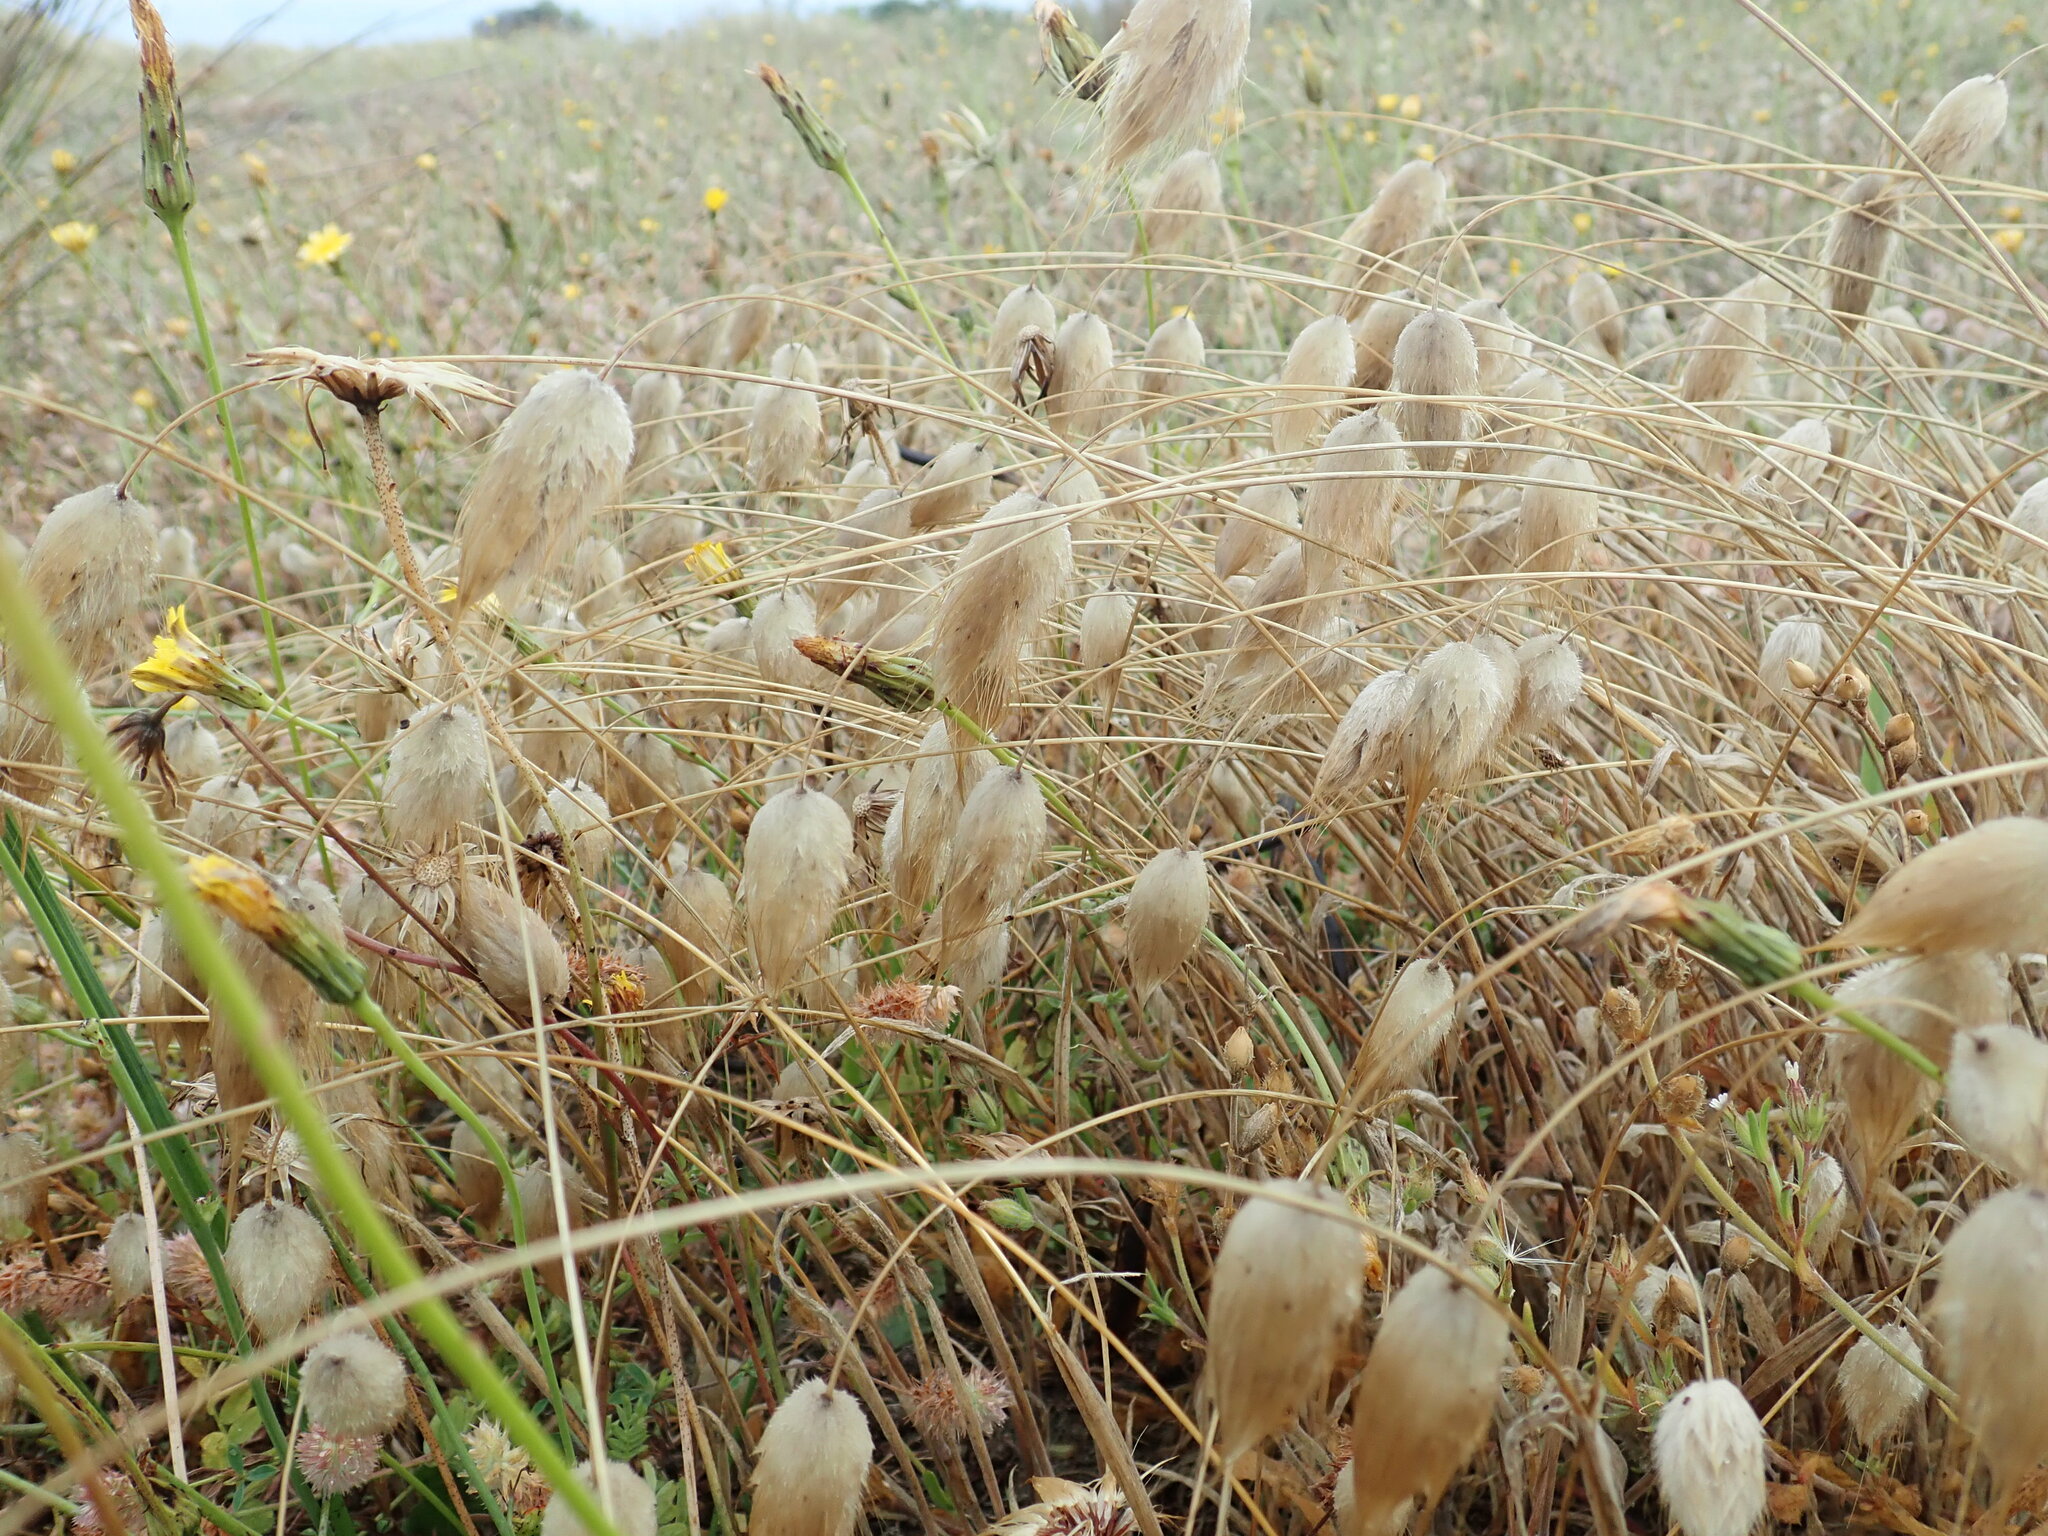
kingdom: Plantae
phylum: Tracheophyta
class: Liliopsida
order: Poales
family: Poaceae
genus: Lagurus
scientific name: Lagurus ovatus
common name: Hare's-tail
